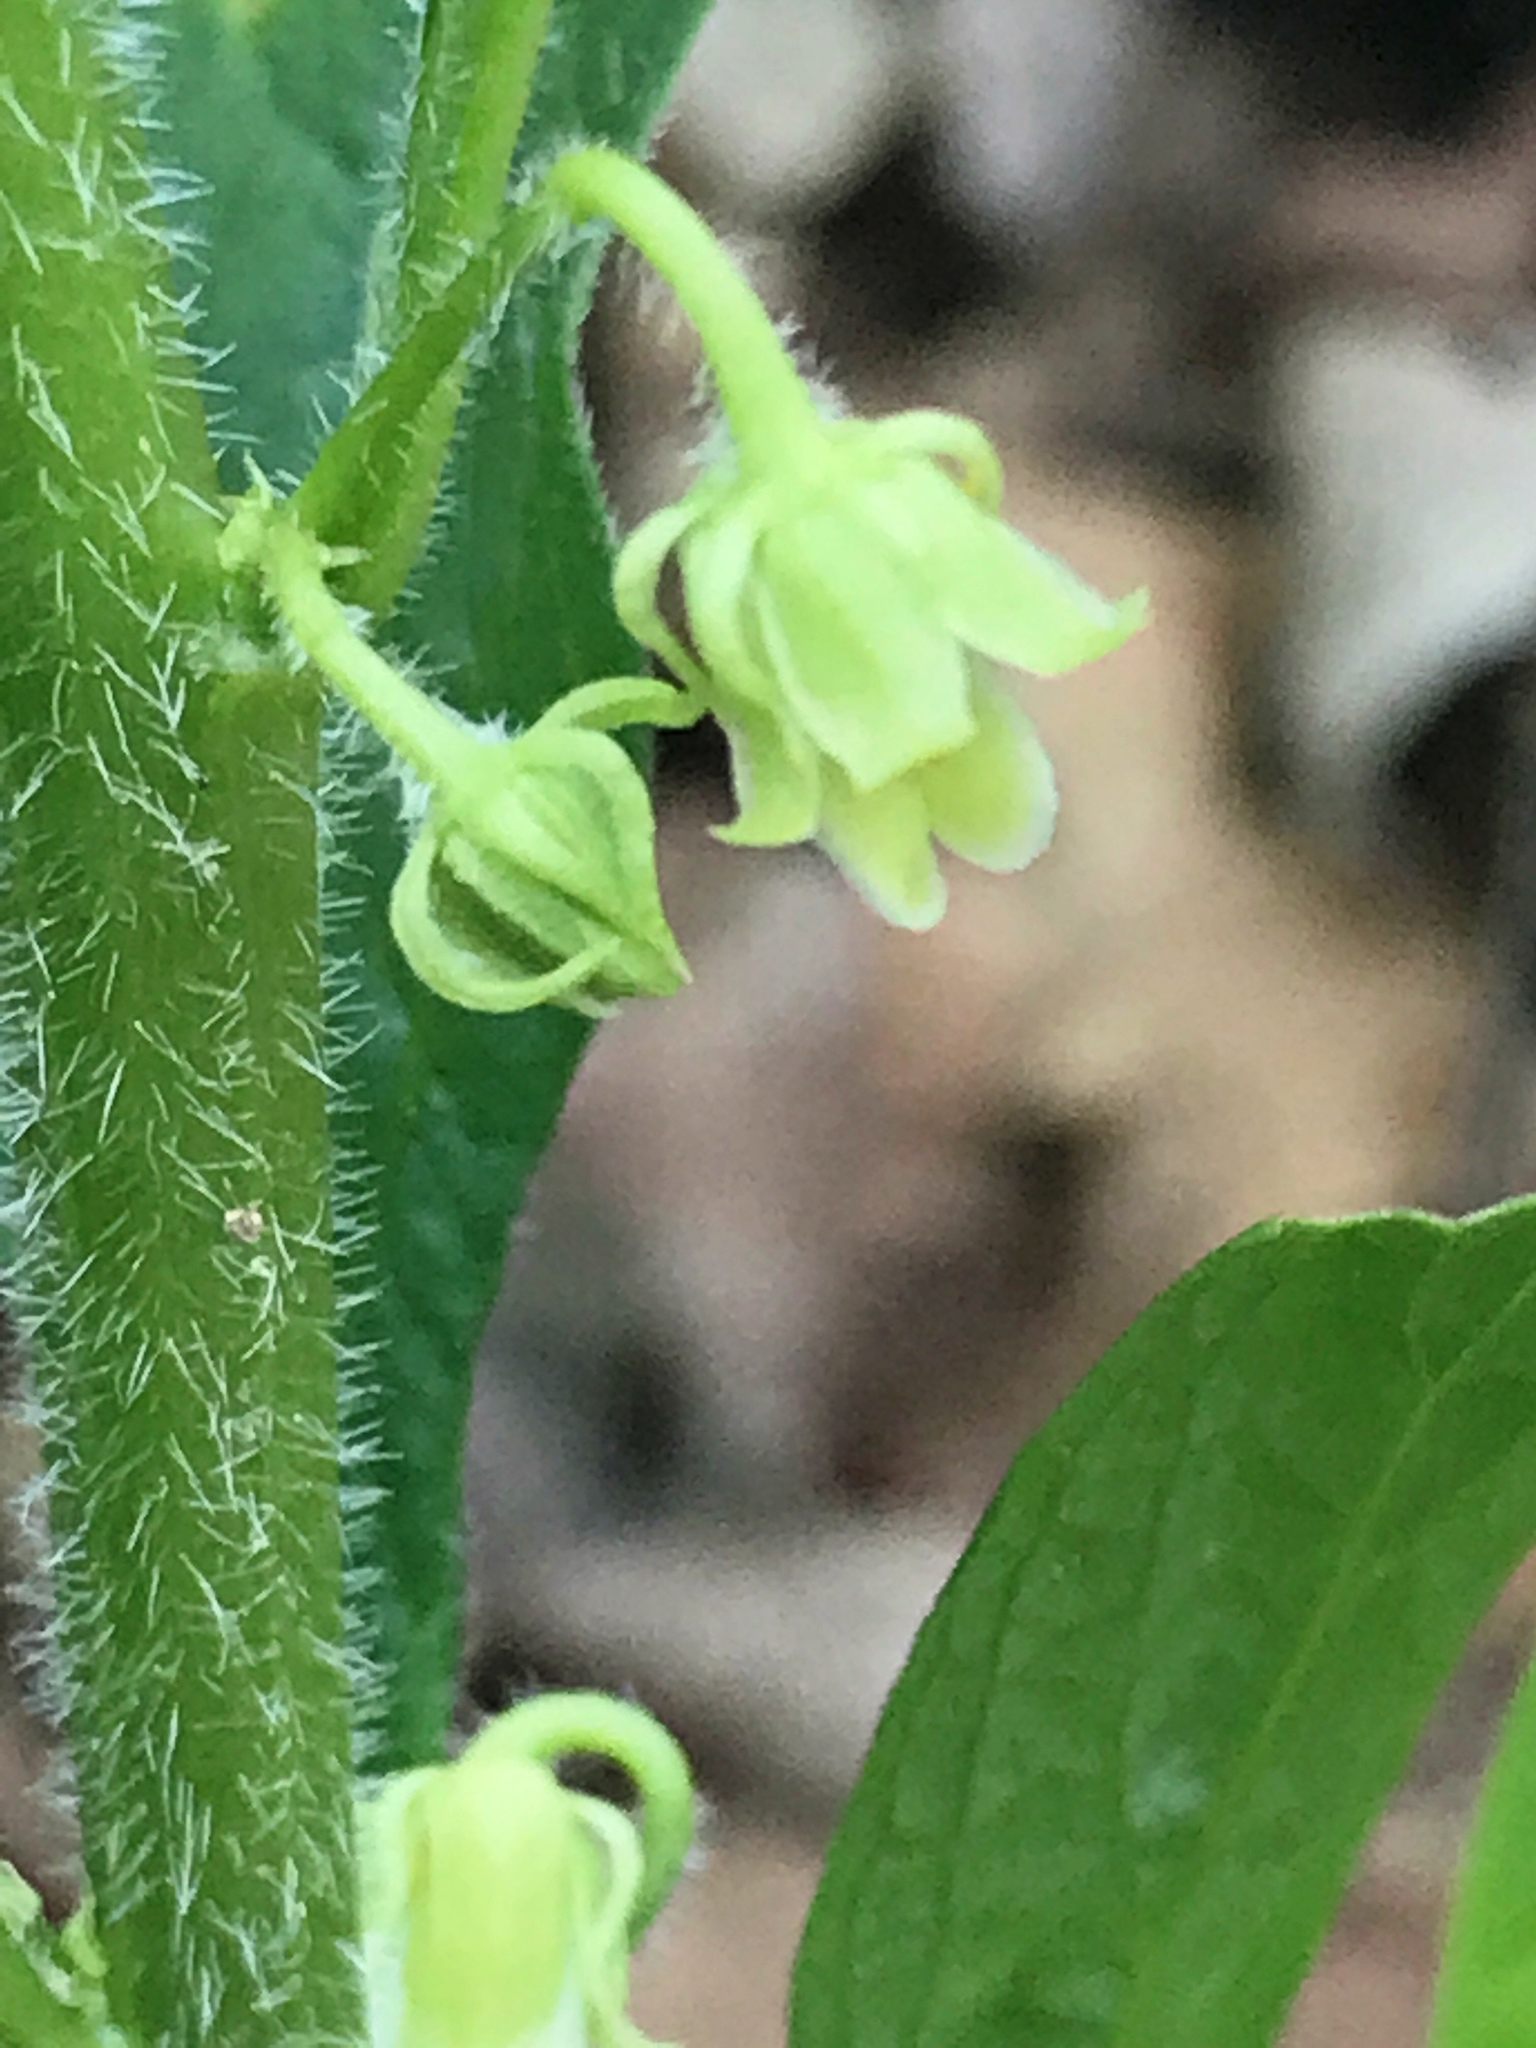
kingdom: Plantae
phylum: Tracheophyta
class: Magnoliopsida
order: Malpighiales
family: Violaceae
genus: Cubelium
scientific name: Cubelium concolor
